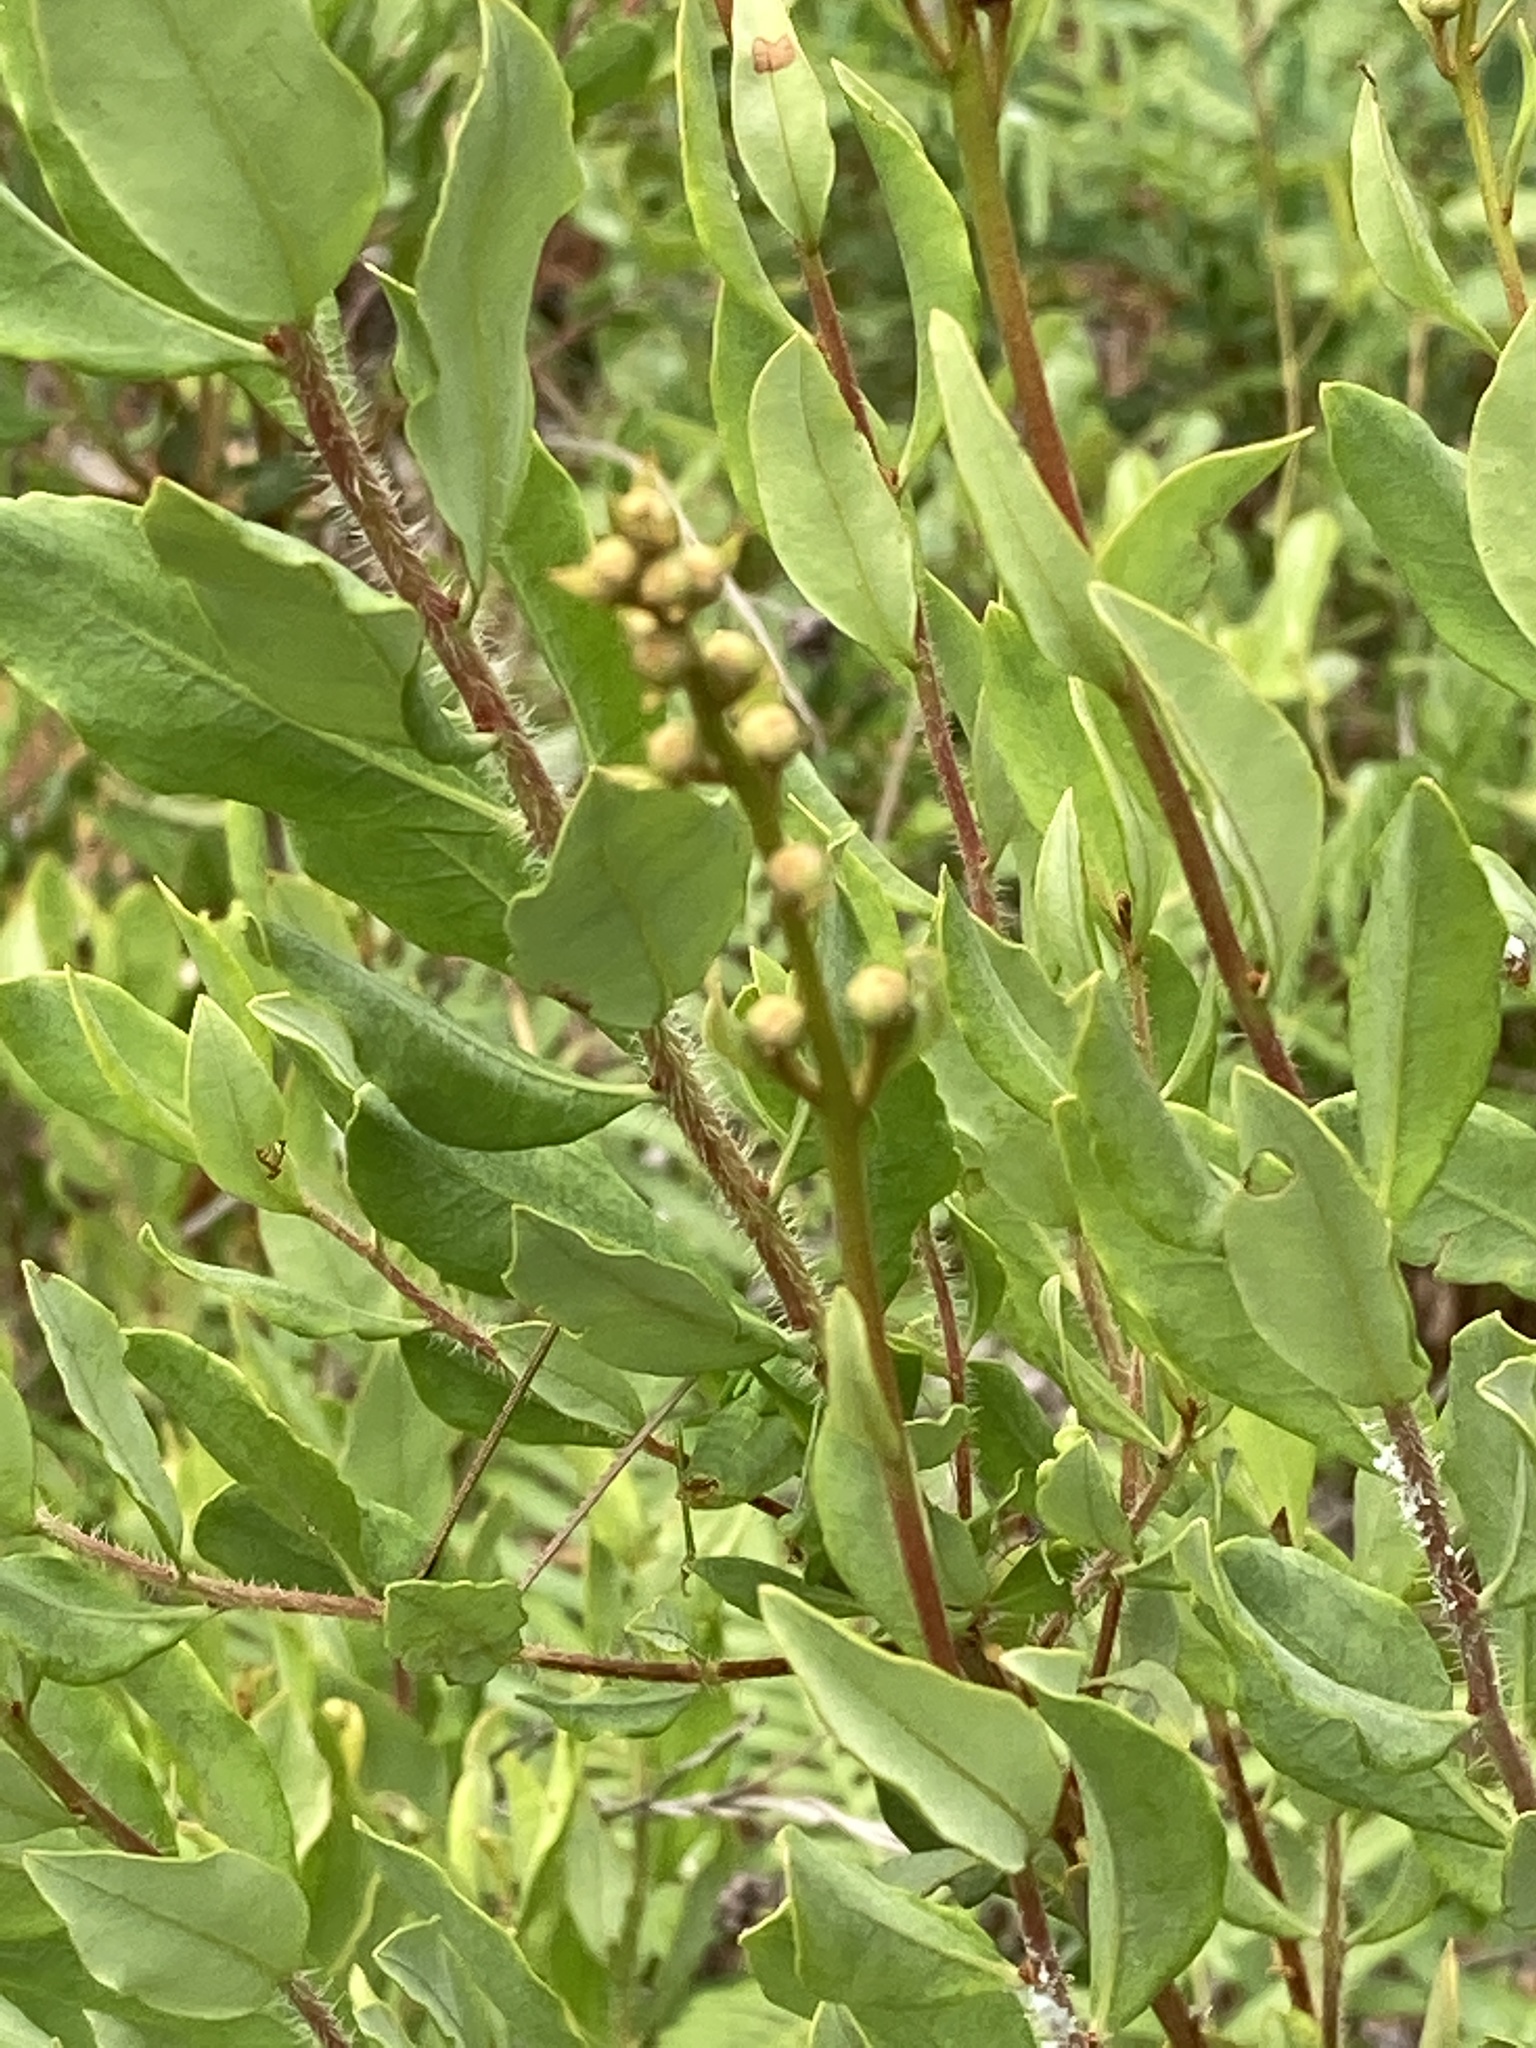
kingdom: Plantae
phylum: Tracheophyta
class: Magnoliopsida
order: Ericales
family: Ericaceae
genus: Bejaria
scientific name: Bejaria racemosa
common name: Tarflower
